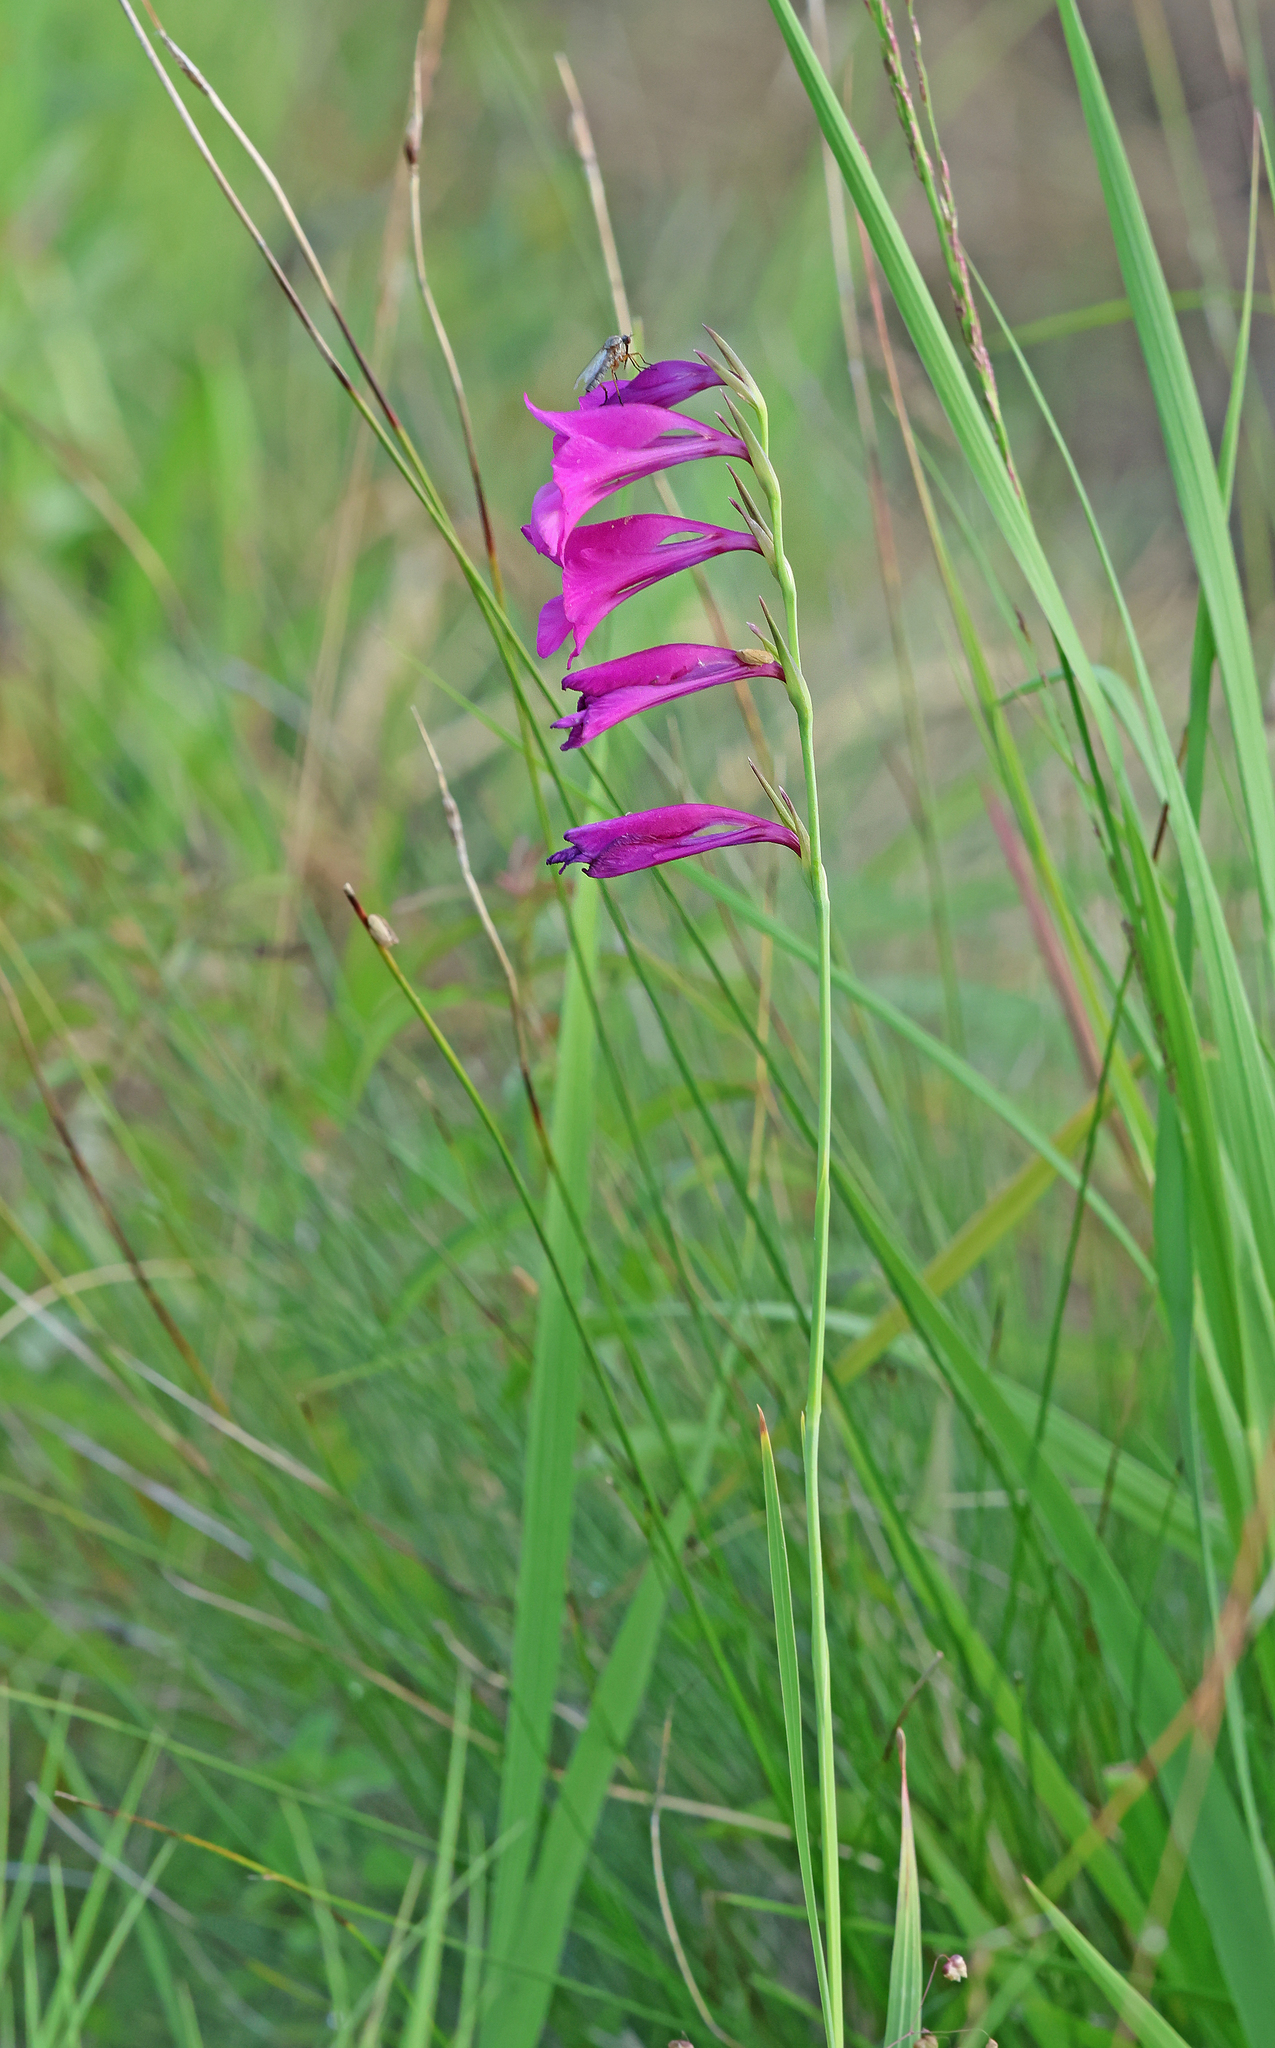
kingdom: Plantae
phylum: Tracheophyta
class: Liliopsida
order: Asparagales
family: Iridaceae
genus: Gladiolus
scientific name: Gladiolus palustris
